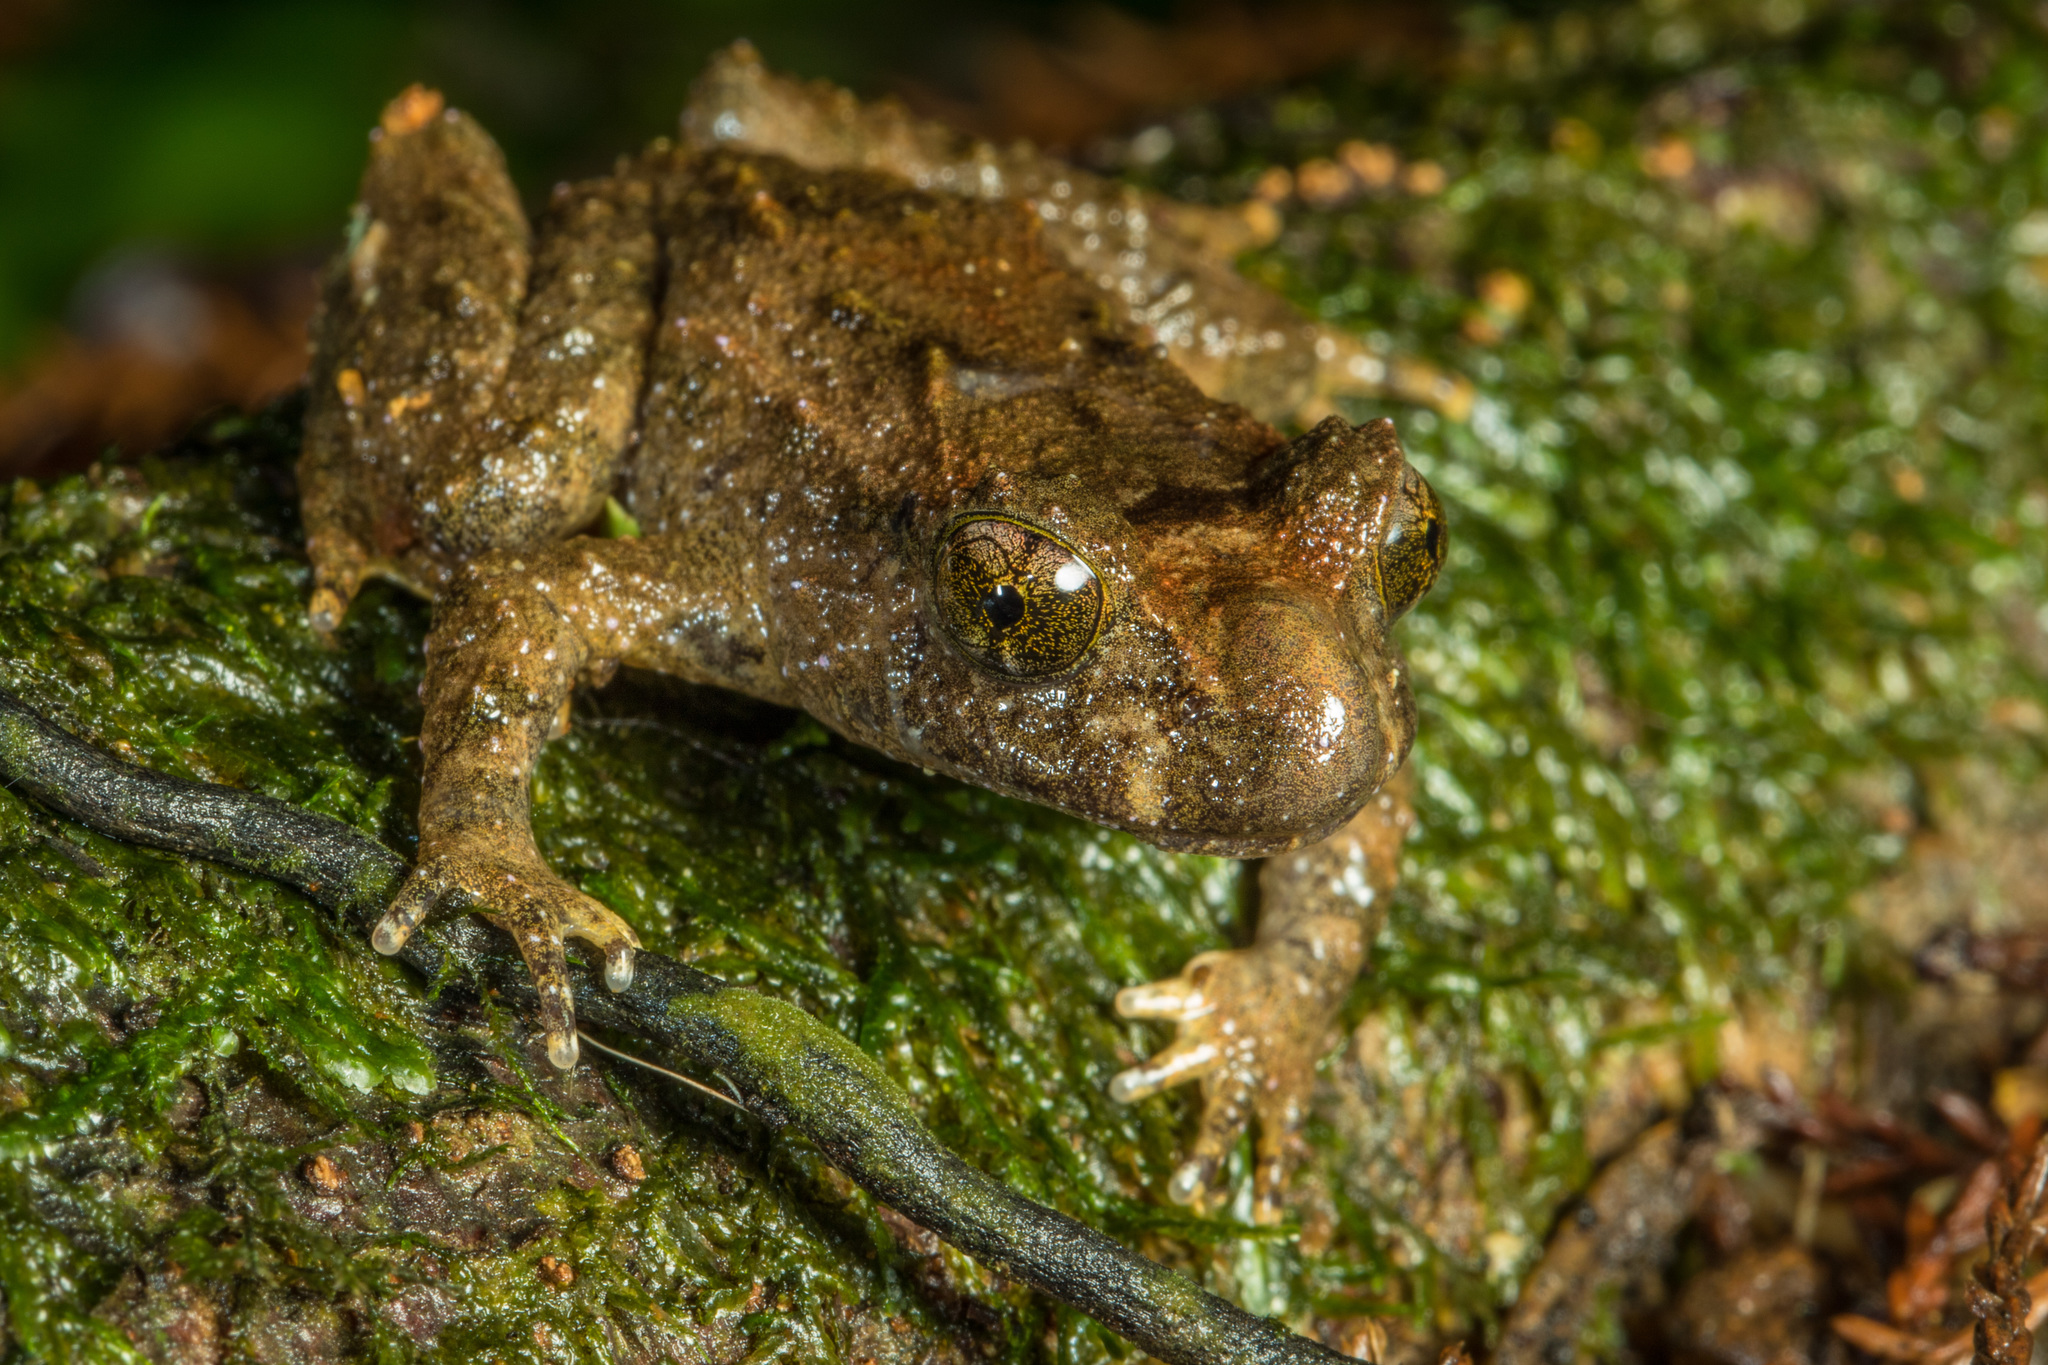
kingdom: Animalia
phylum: Chordata
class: Amphibia
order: Anura
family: Leiopelmatidae
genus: Leiopelma
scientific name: Leiopelma hochstetteri
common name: Hochstetters new zealand frog
